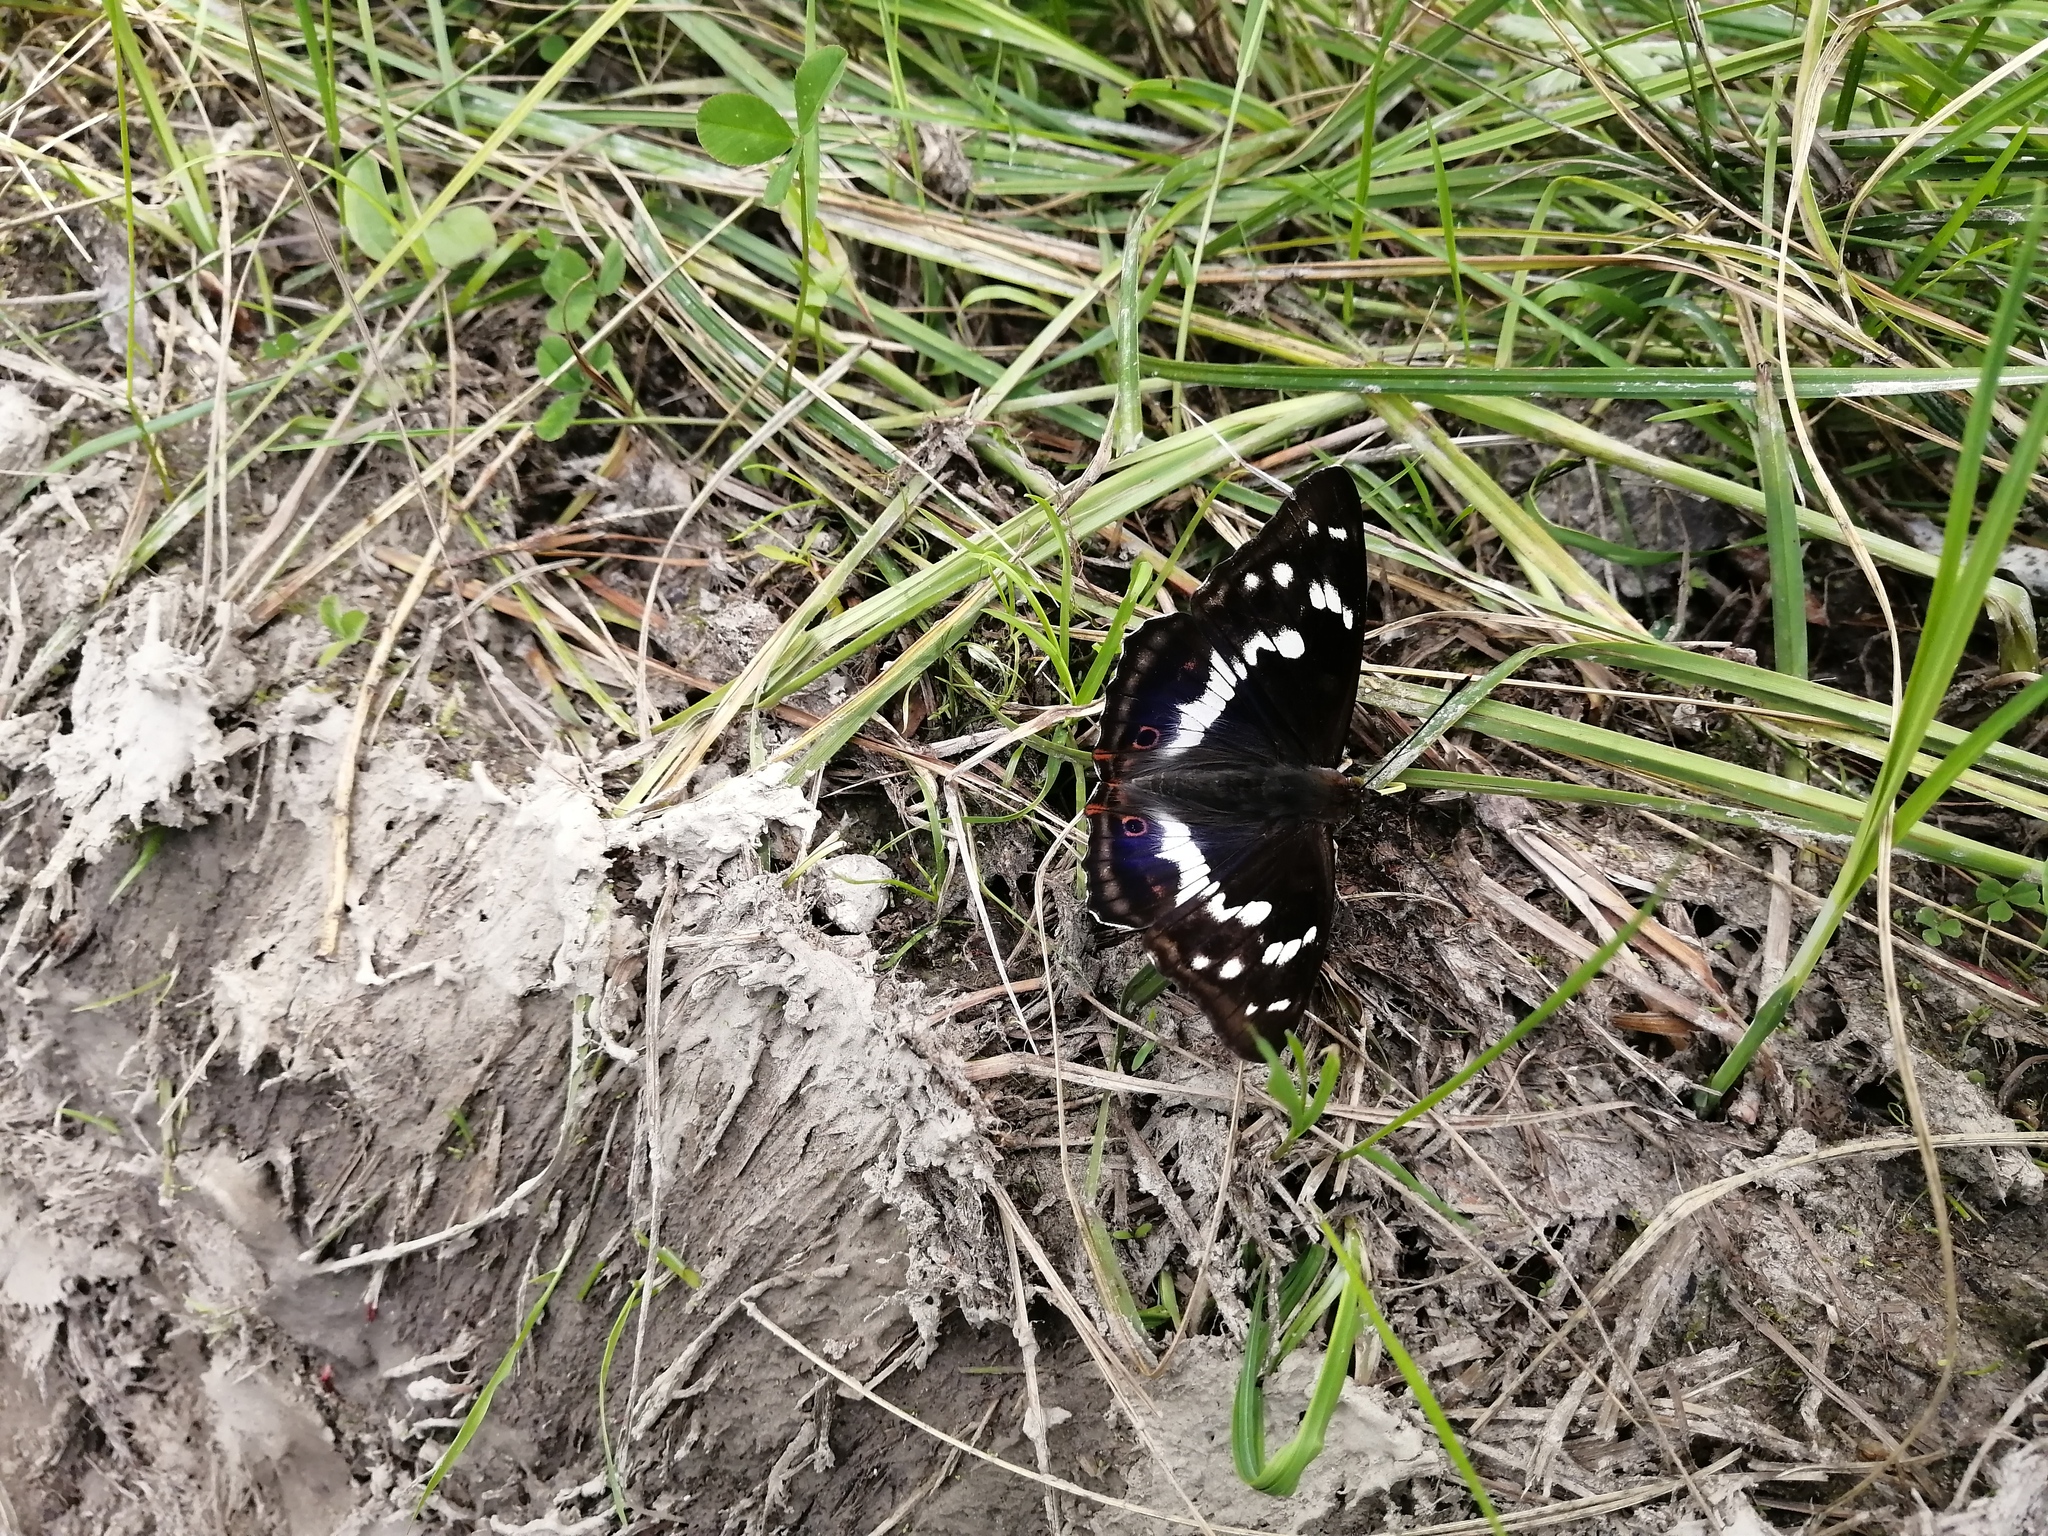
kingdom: Animalia
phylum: Arthropoda
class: Insecta
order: Lepidoptera
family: Nymphalidae
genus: Apatura
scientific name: Apatura iris
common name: Purple emperor
